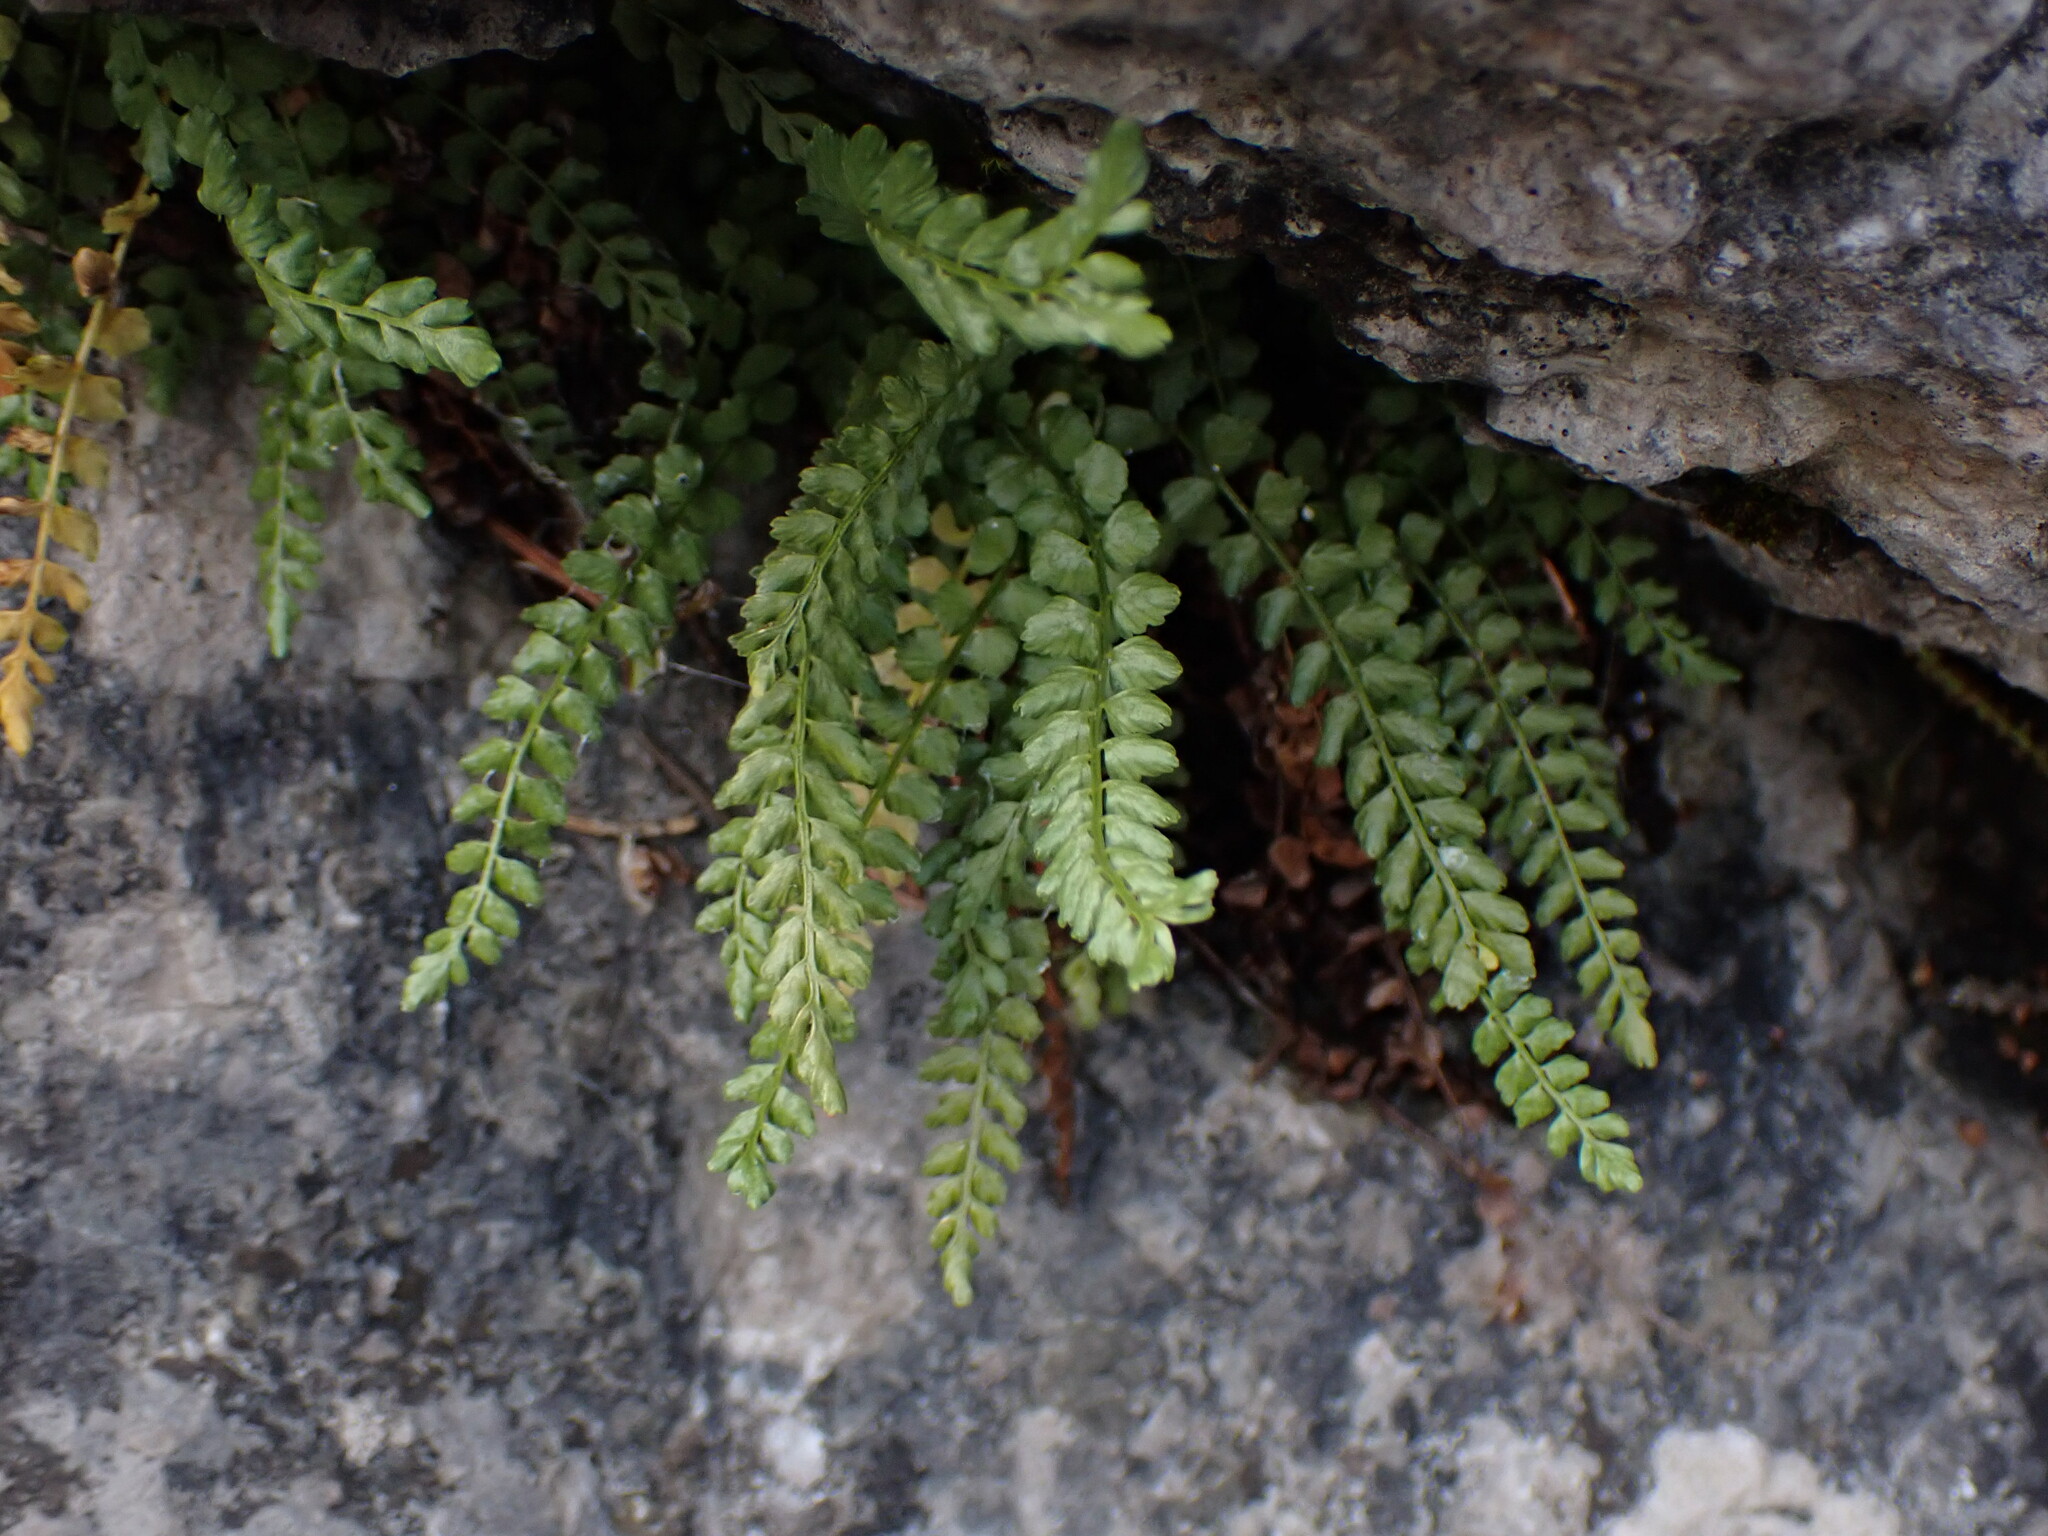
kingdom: Plantae
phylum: Tracheophyta
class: Polypodiopsida
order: Polypodiales
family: Aspleniaceae
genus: Asplenium
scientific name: Asplenium viride
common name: Green spleenwort
